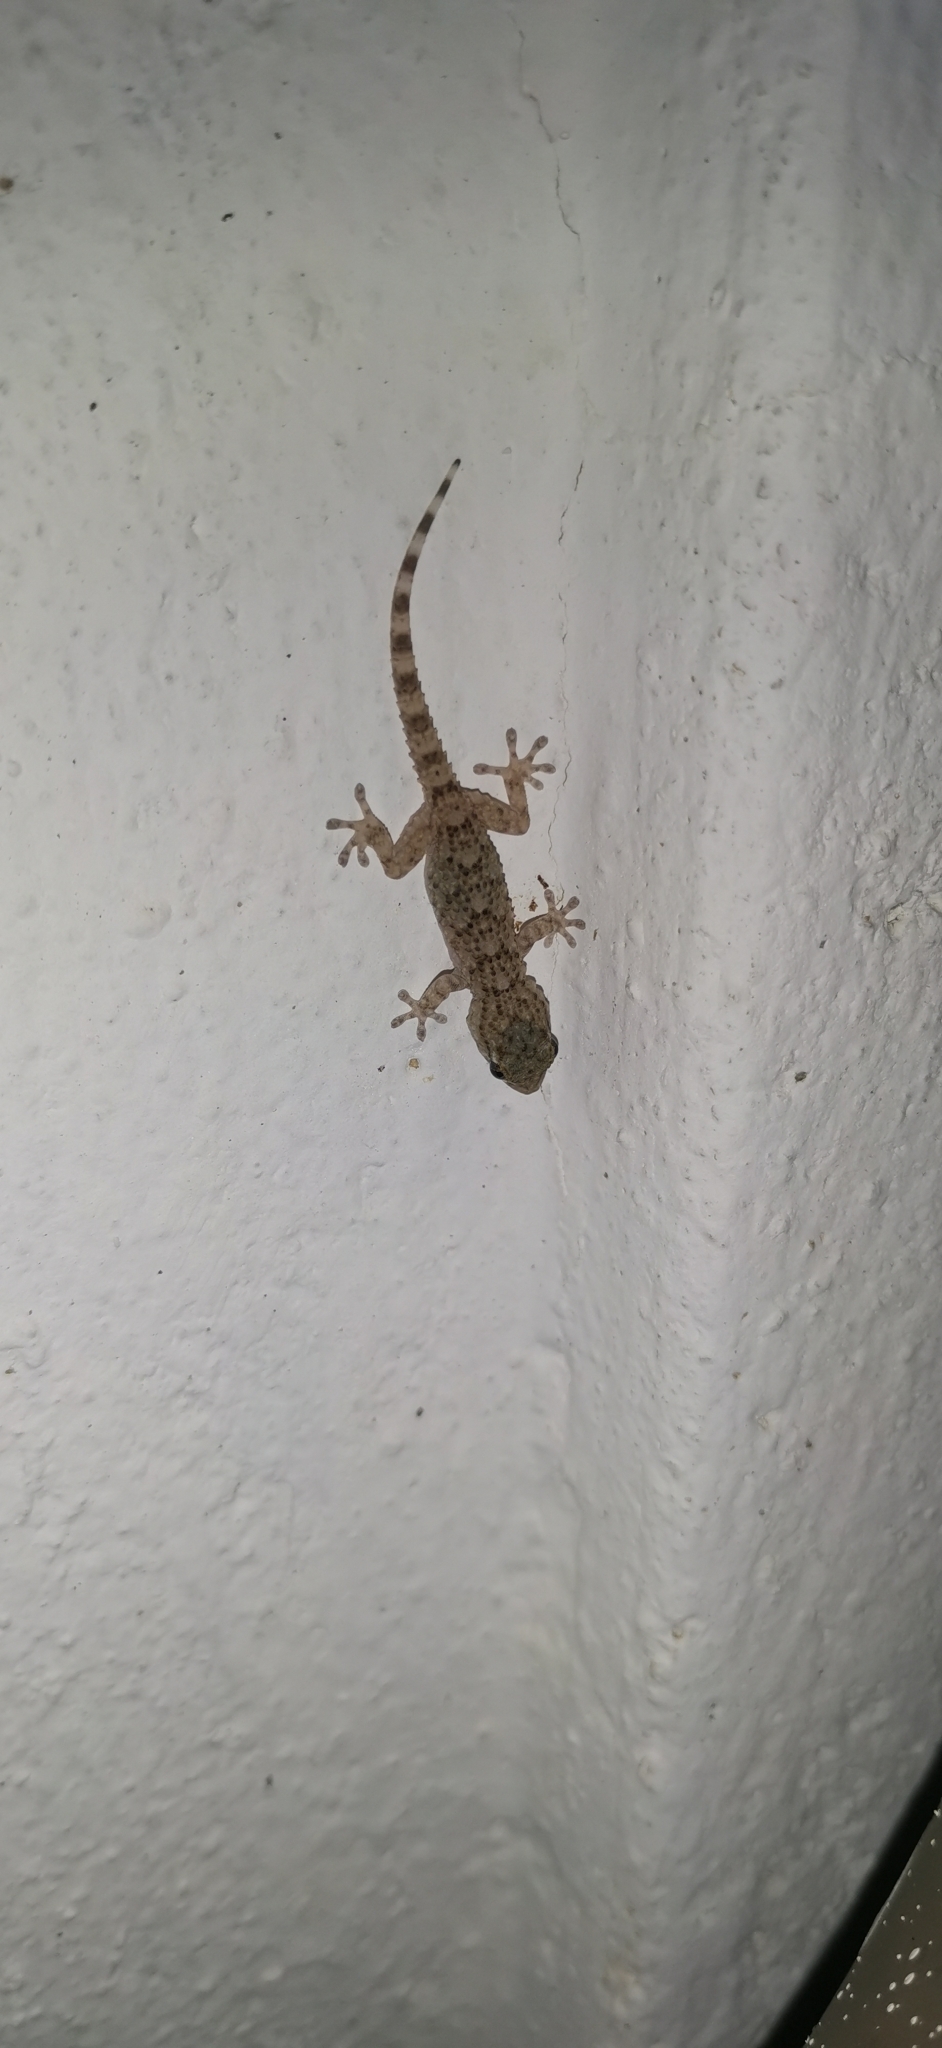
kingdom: Animalia
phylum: Chordata
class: Squamata
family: Phyllodactylidae
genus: Tarentola
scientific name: Tarentola mauritanica
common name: Moorish gecko
